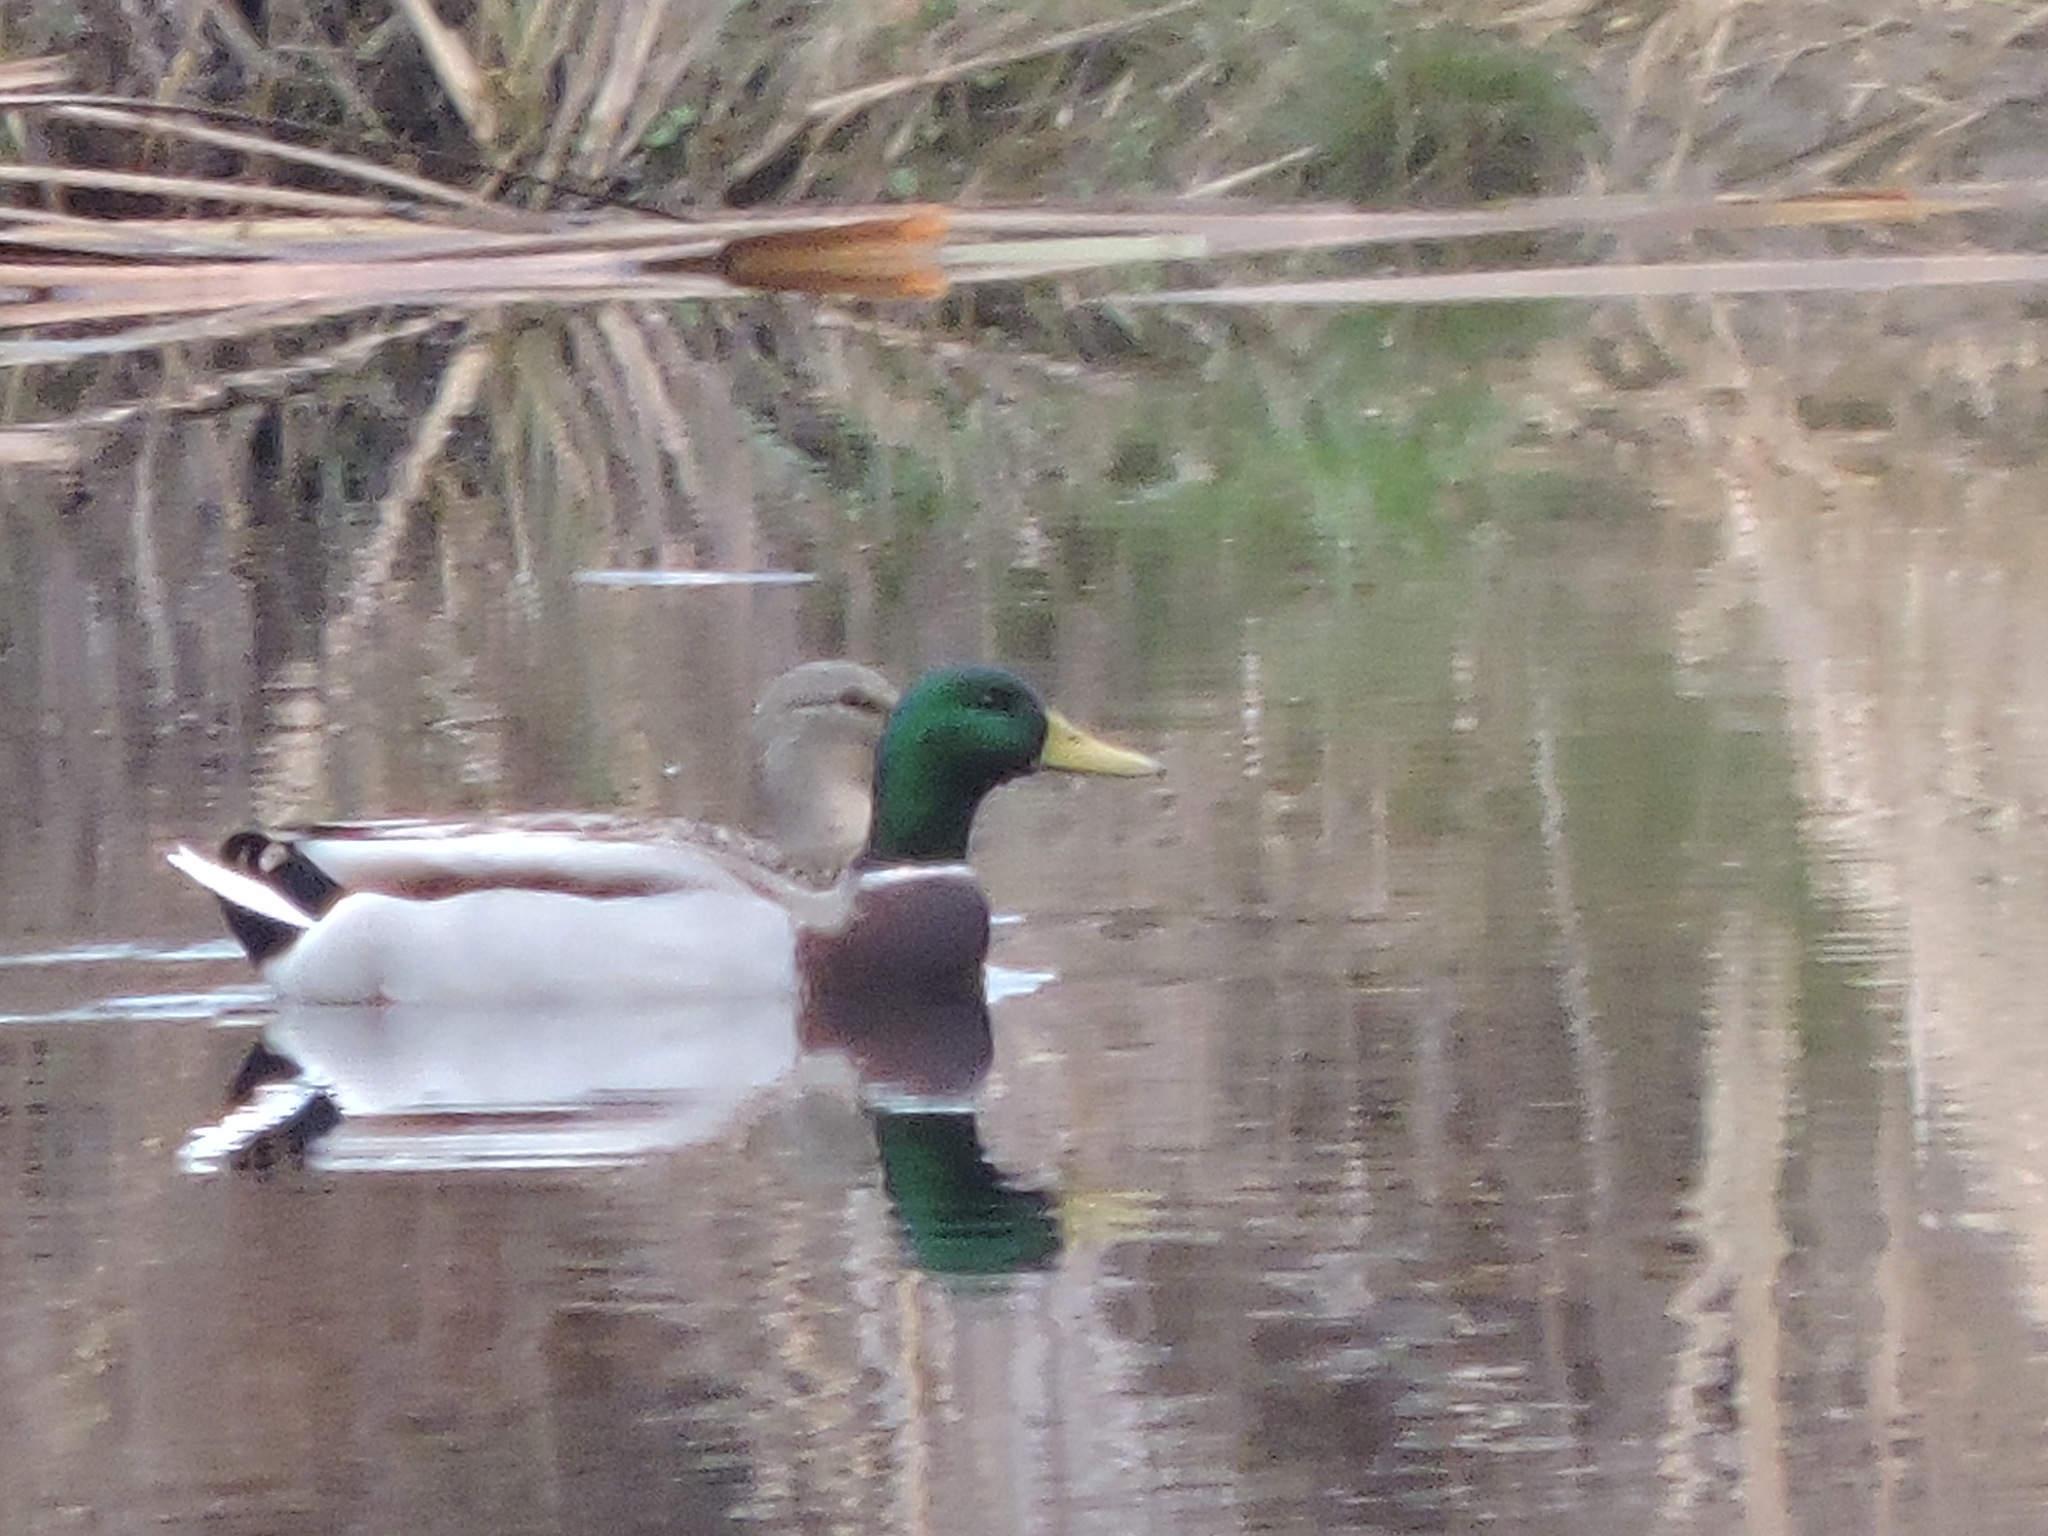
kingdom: Animalia
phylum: Chordata
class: Aves
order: Anseriformes
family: Anatidae
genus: Anas
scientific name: Anas platyrhynchos
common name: Mallard
